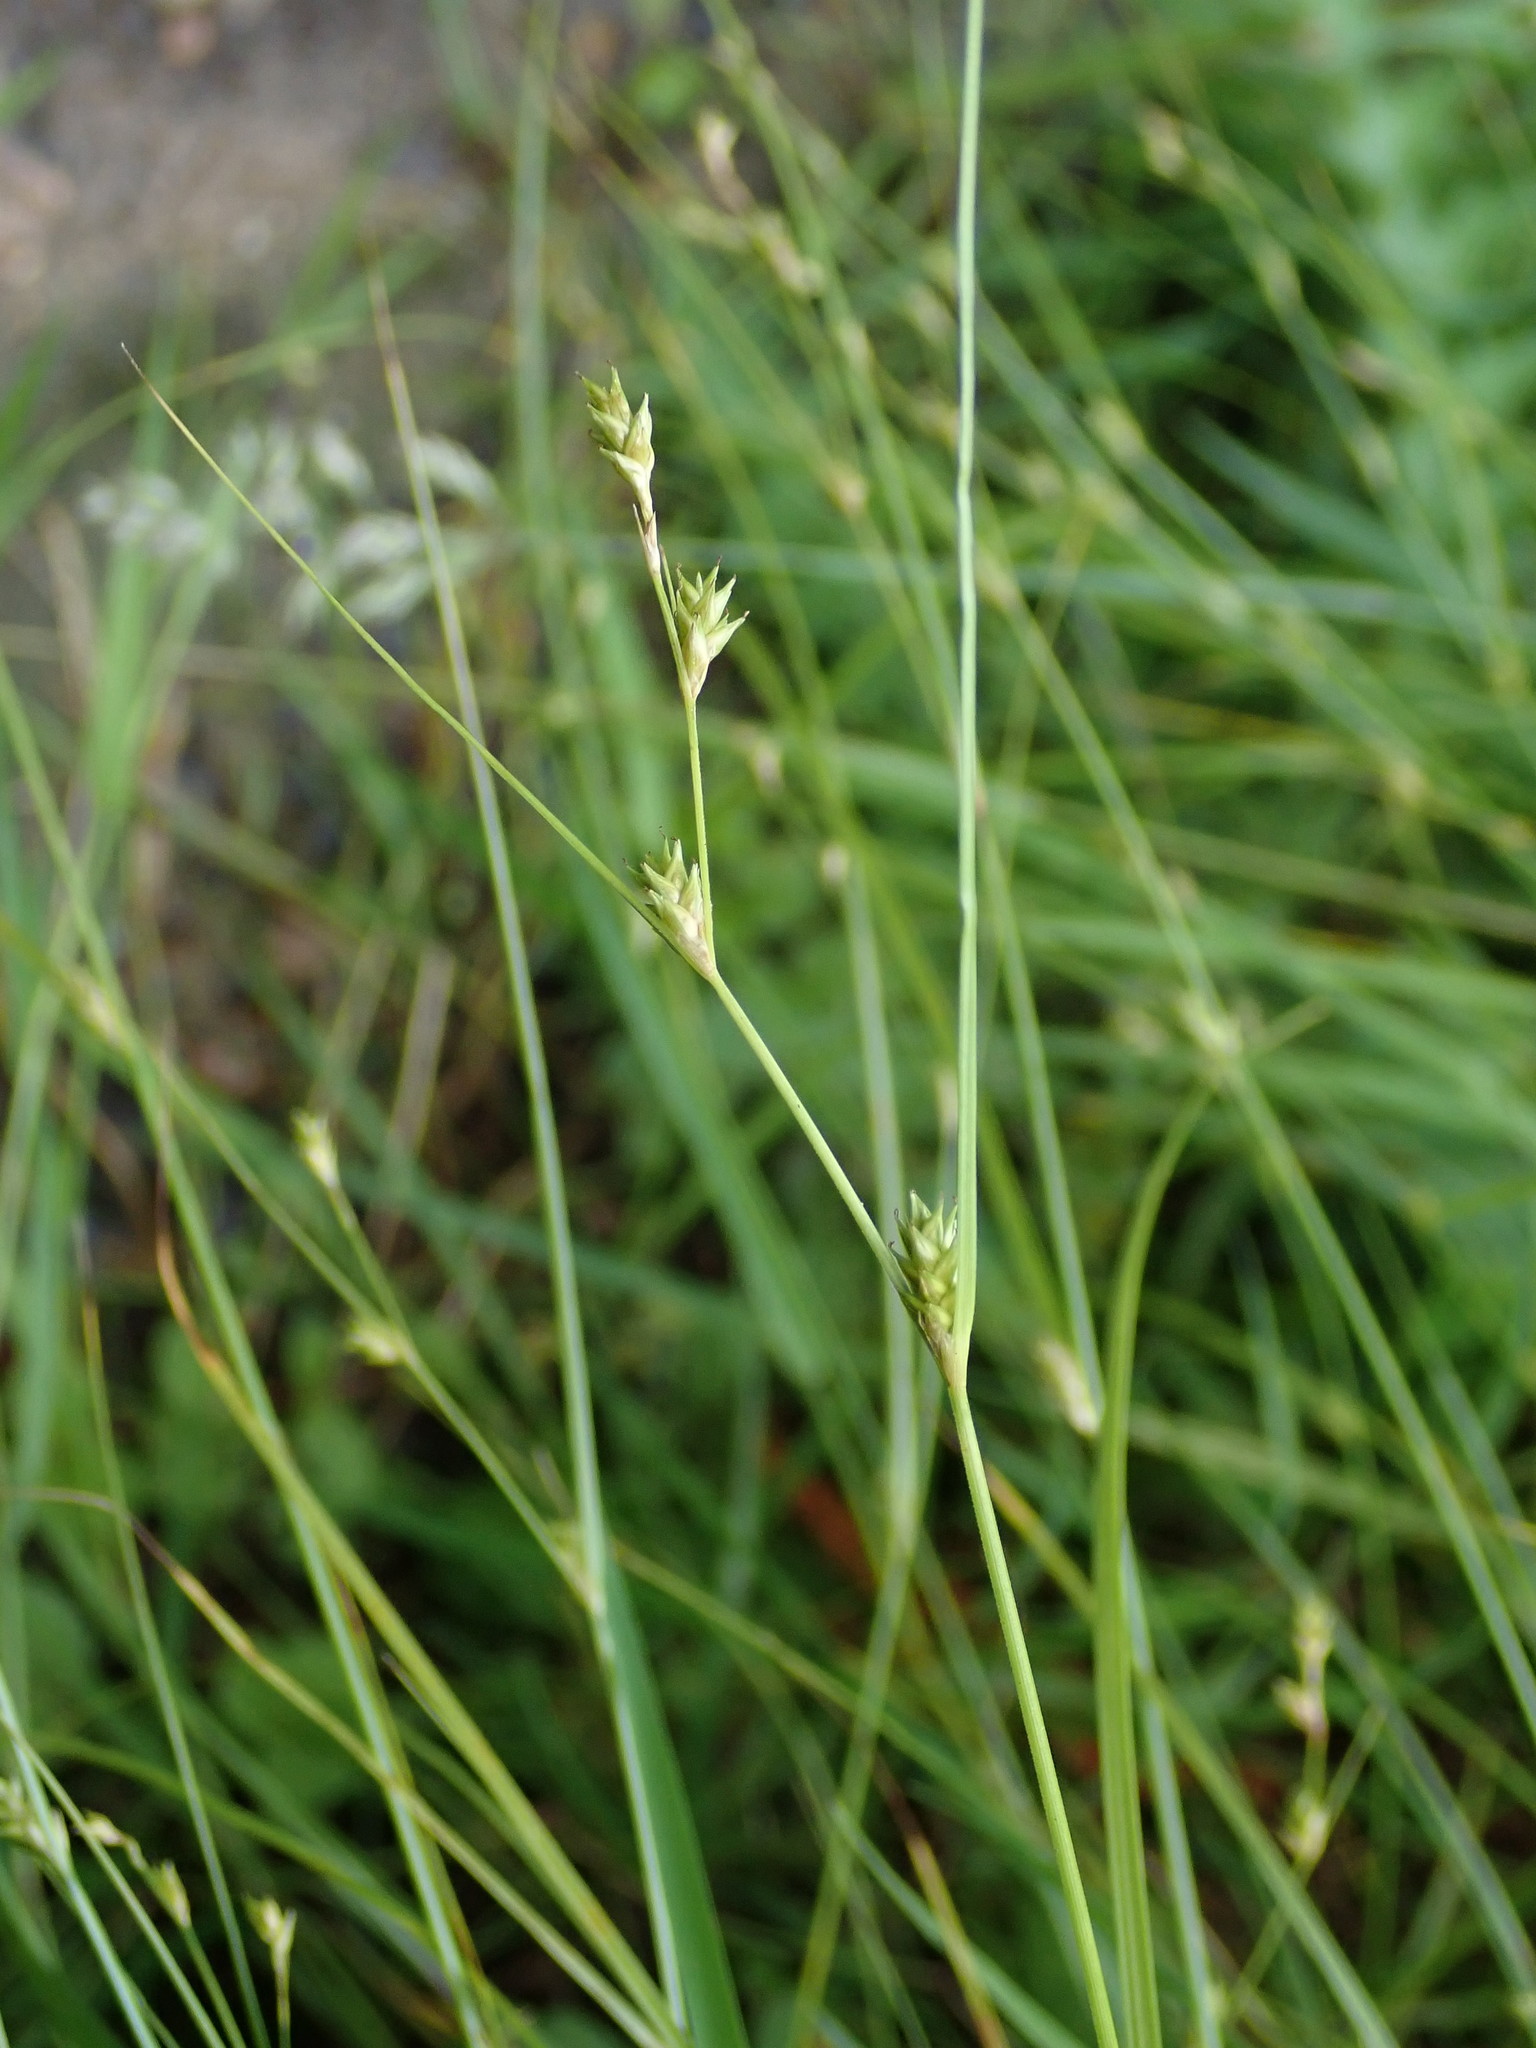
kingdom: Plantae
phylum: Tracheophyta
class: Liliopsida
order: Poales
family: Cyperaceae
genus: Carex
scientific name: Carex remota
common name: Remote sedge
